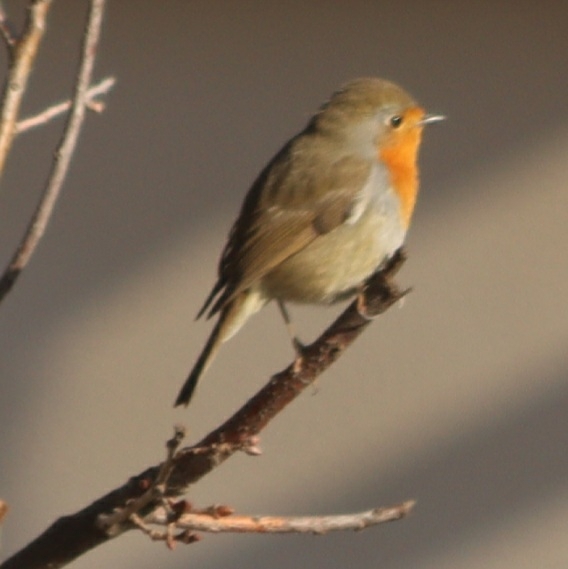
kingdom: Animalia
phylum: Chordata
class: Aves
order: Passeriformes
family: Muscicapidae
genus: Erithacus
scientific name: Erithacus rubecula
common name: European robin
